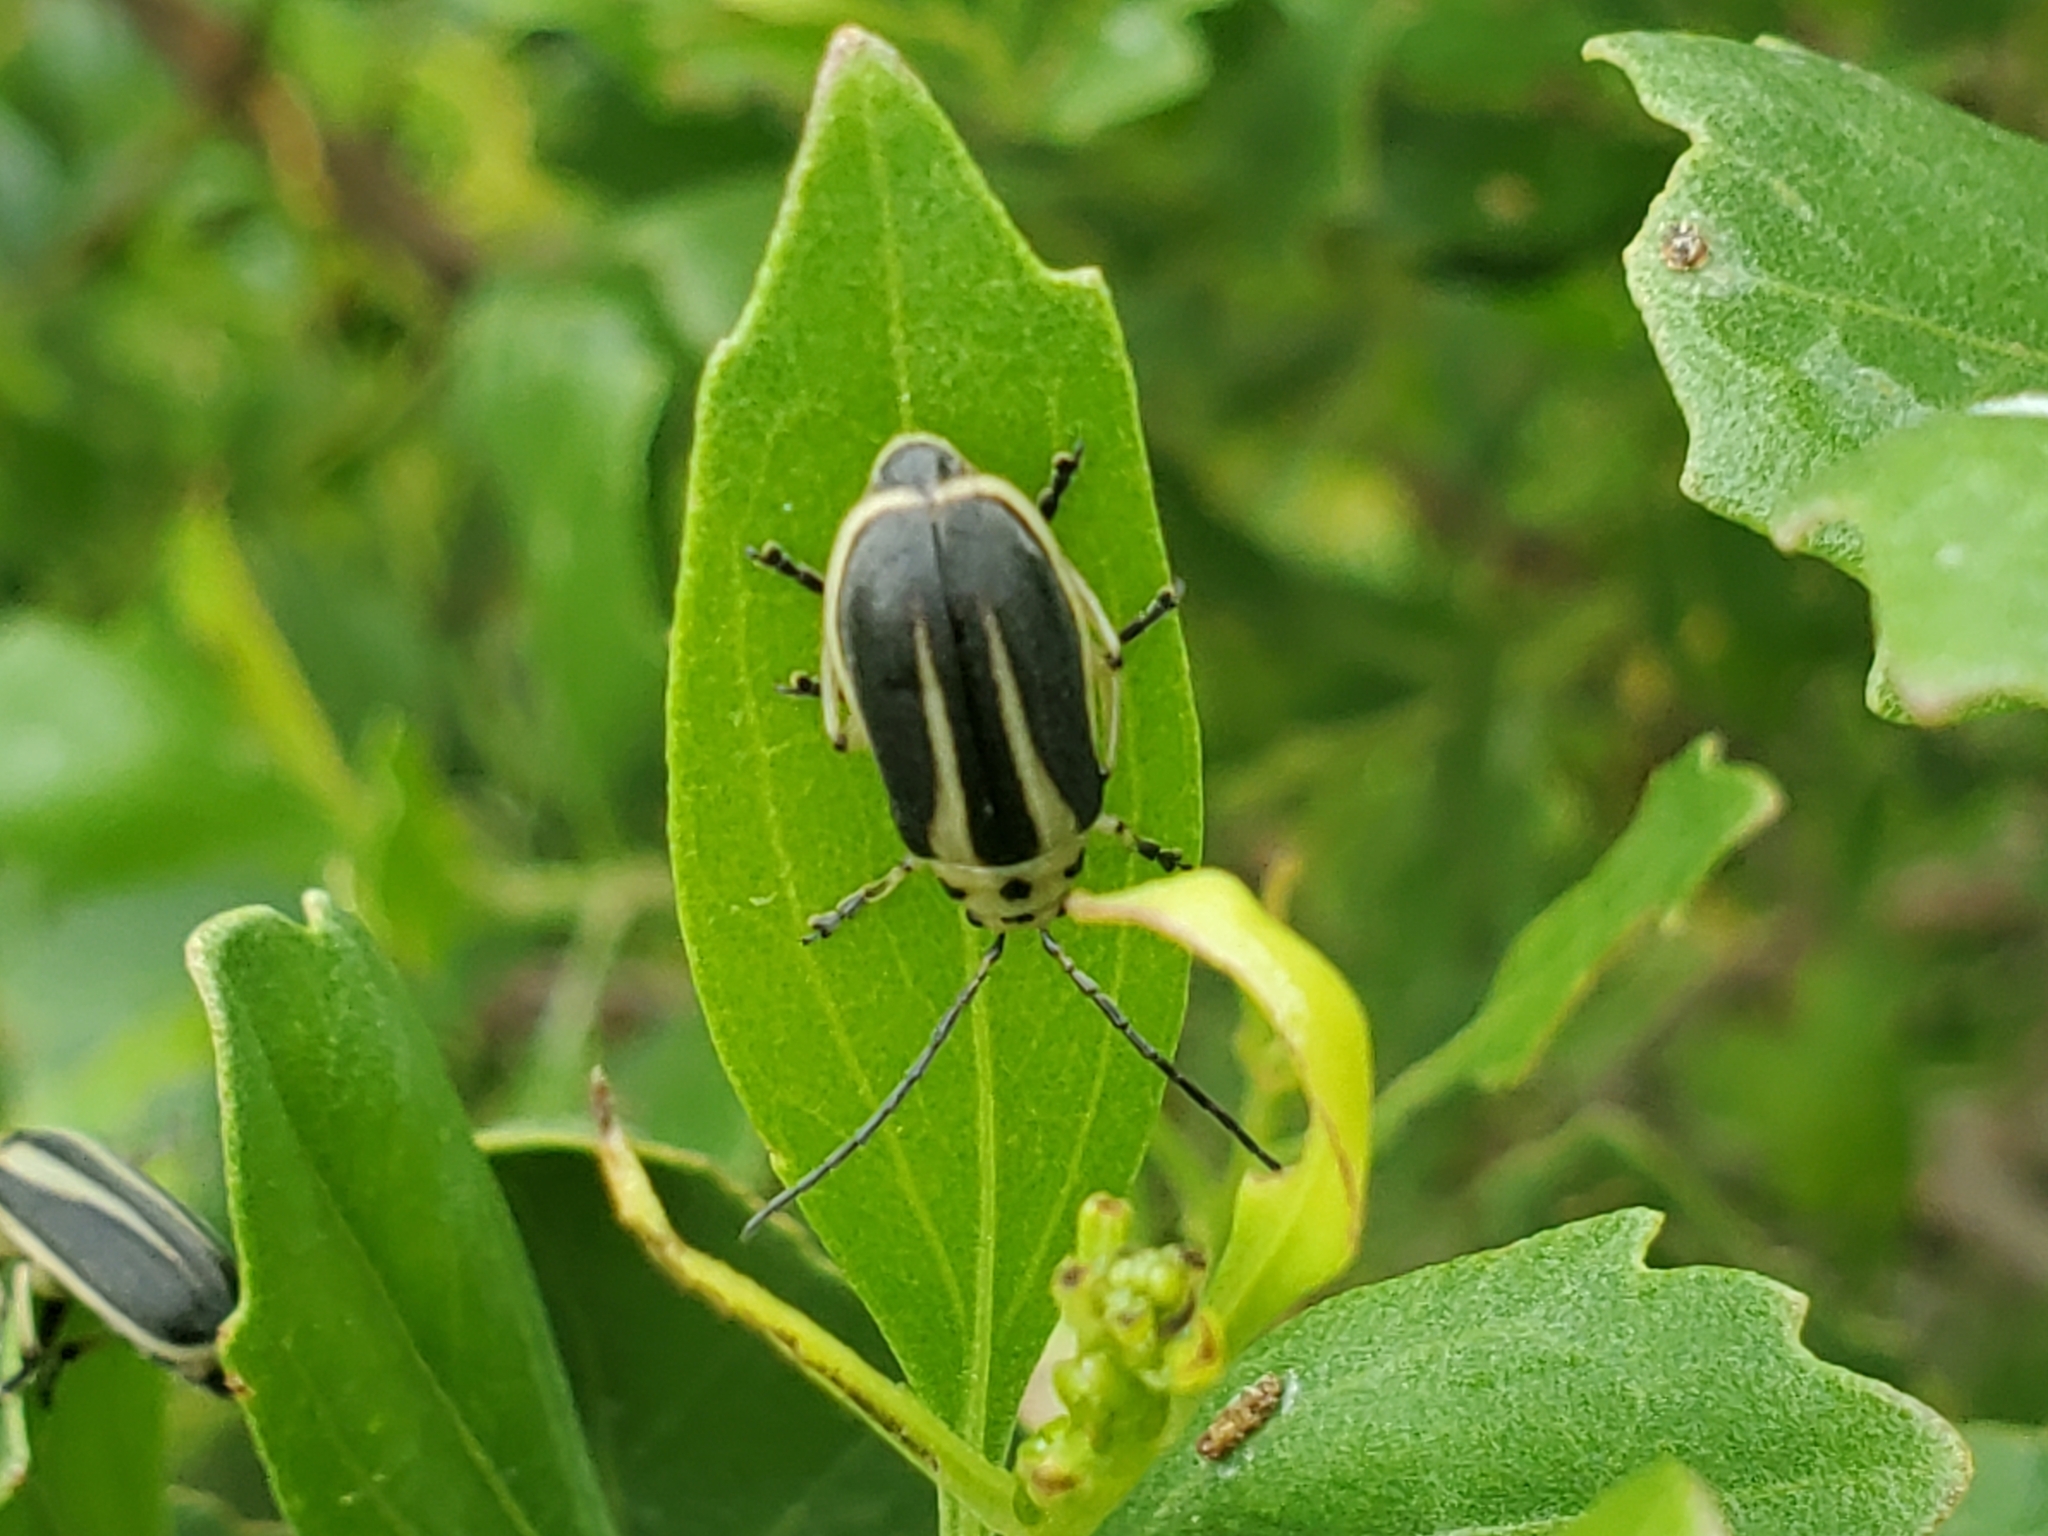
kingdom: Animalia
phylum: Arthropoda
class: Insecta
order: Coleoptera
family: Chrysomelidae
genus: Trirhabda
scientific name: Trirhabda bacharidis
